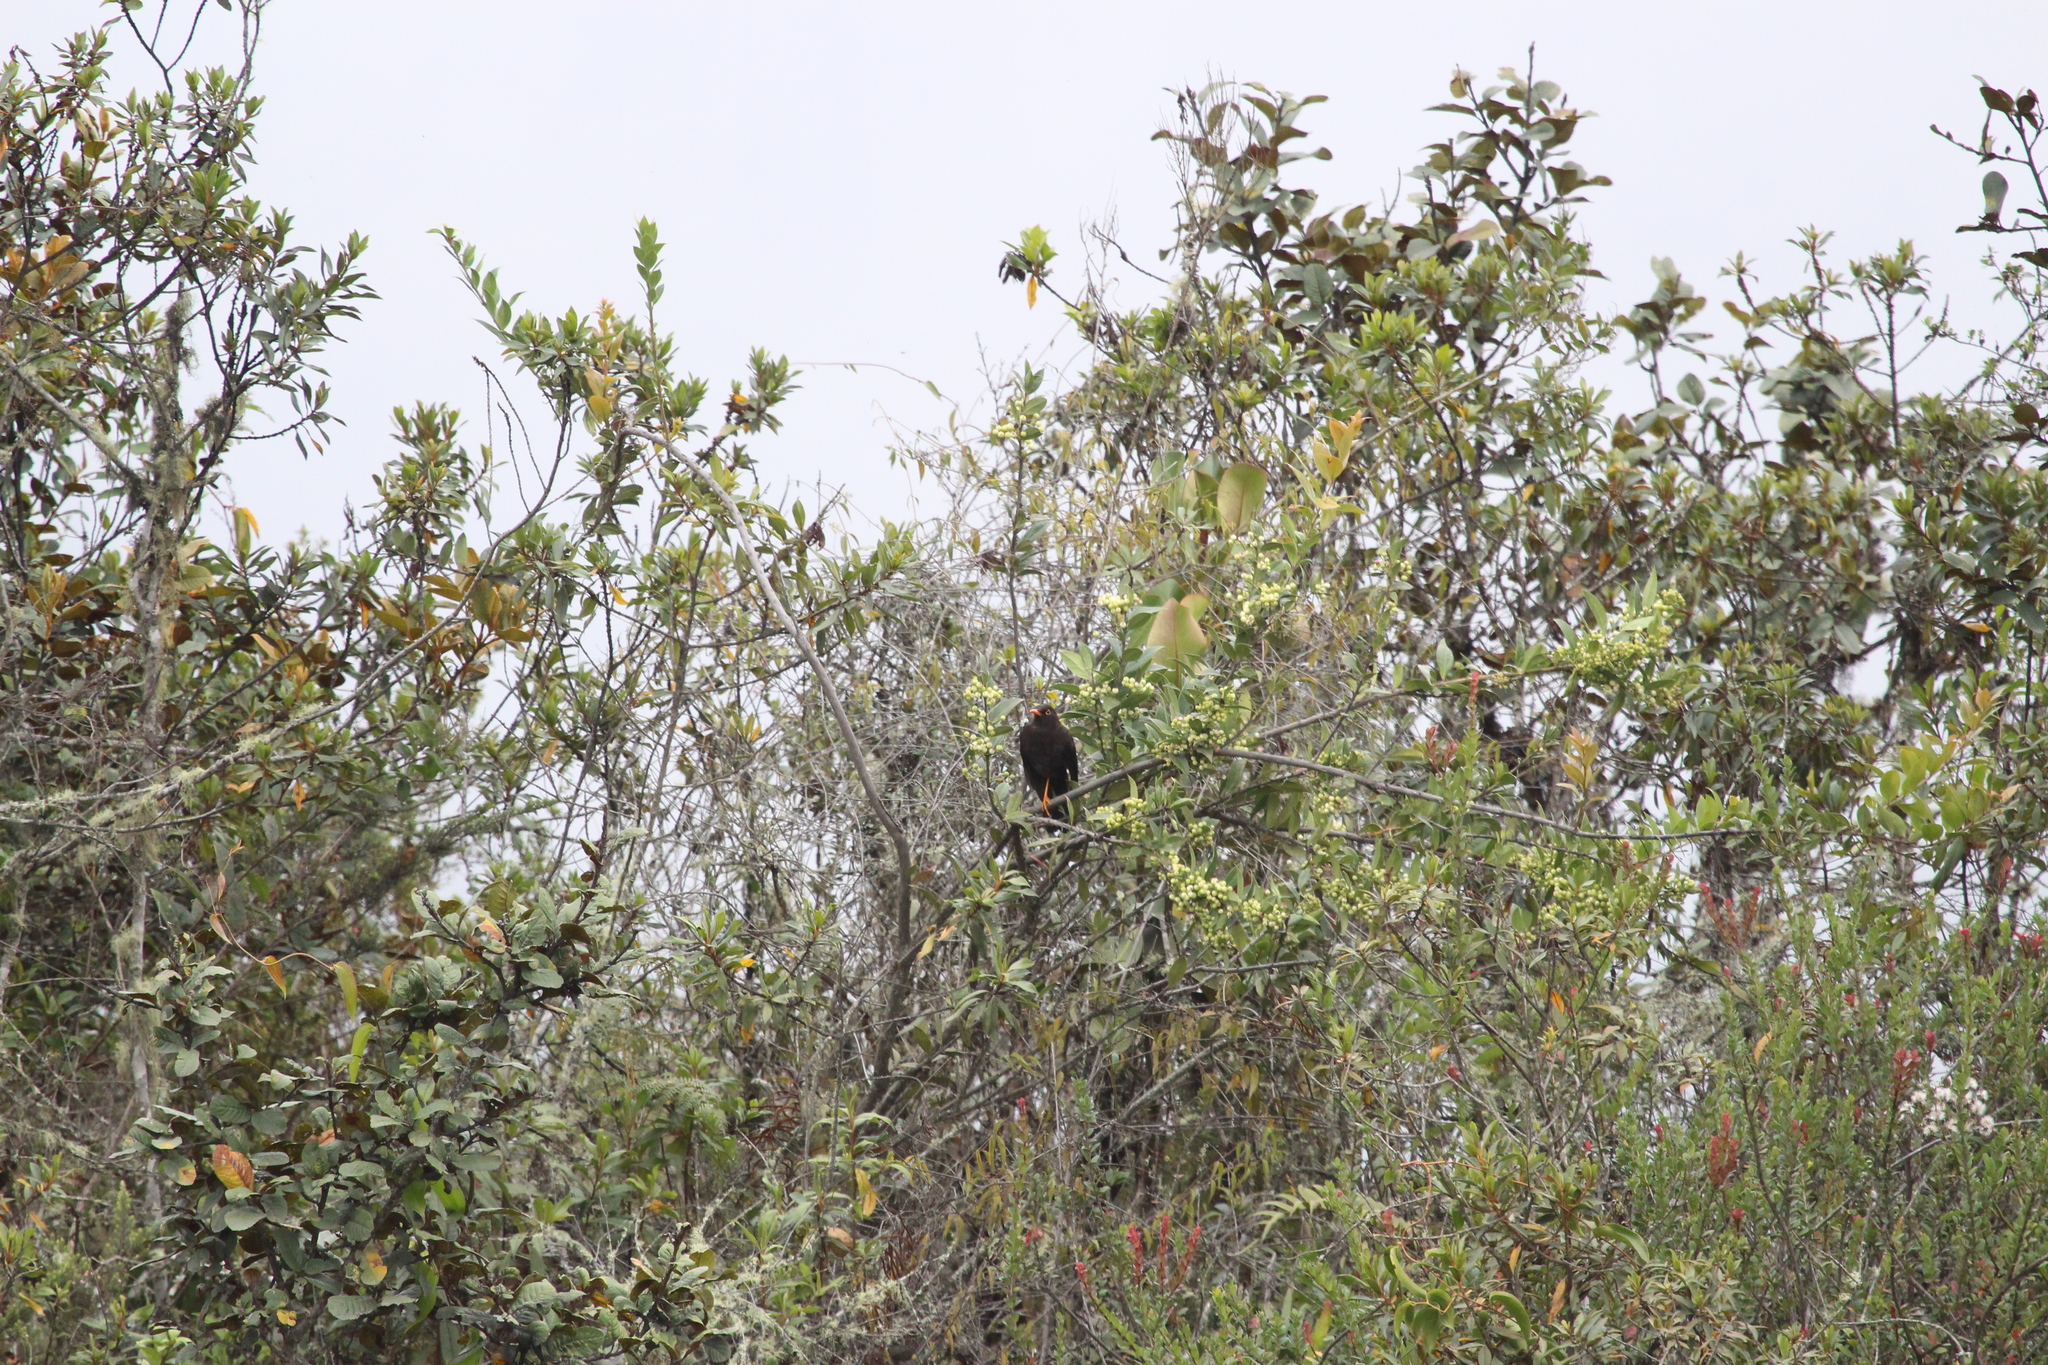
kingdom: Animalia
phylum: Chordata
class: Aves
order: Passeriformes
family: Turdidae
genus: Turdus
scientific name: Turdus fuscater
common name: Great thrush
